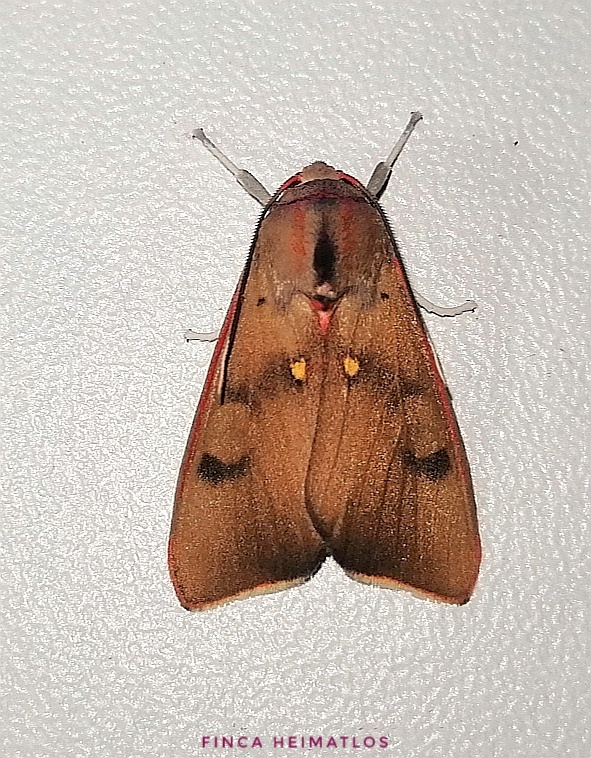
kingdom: Animalia
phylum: Arthropoda
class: Insecta
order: Lepidoptera
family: Erebidae
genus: Melese
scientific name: Melese incertus
